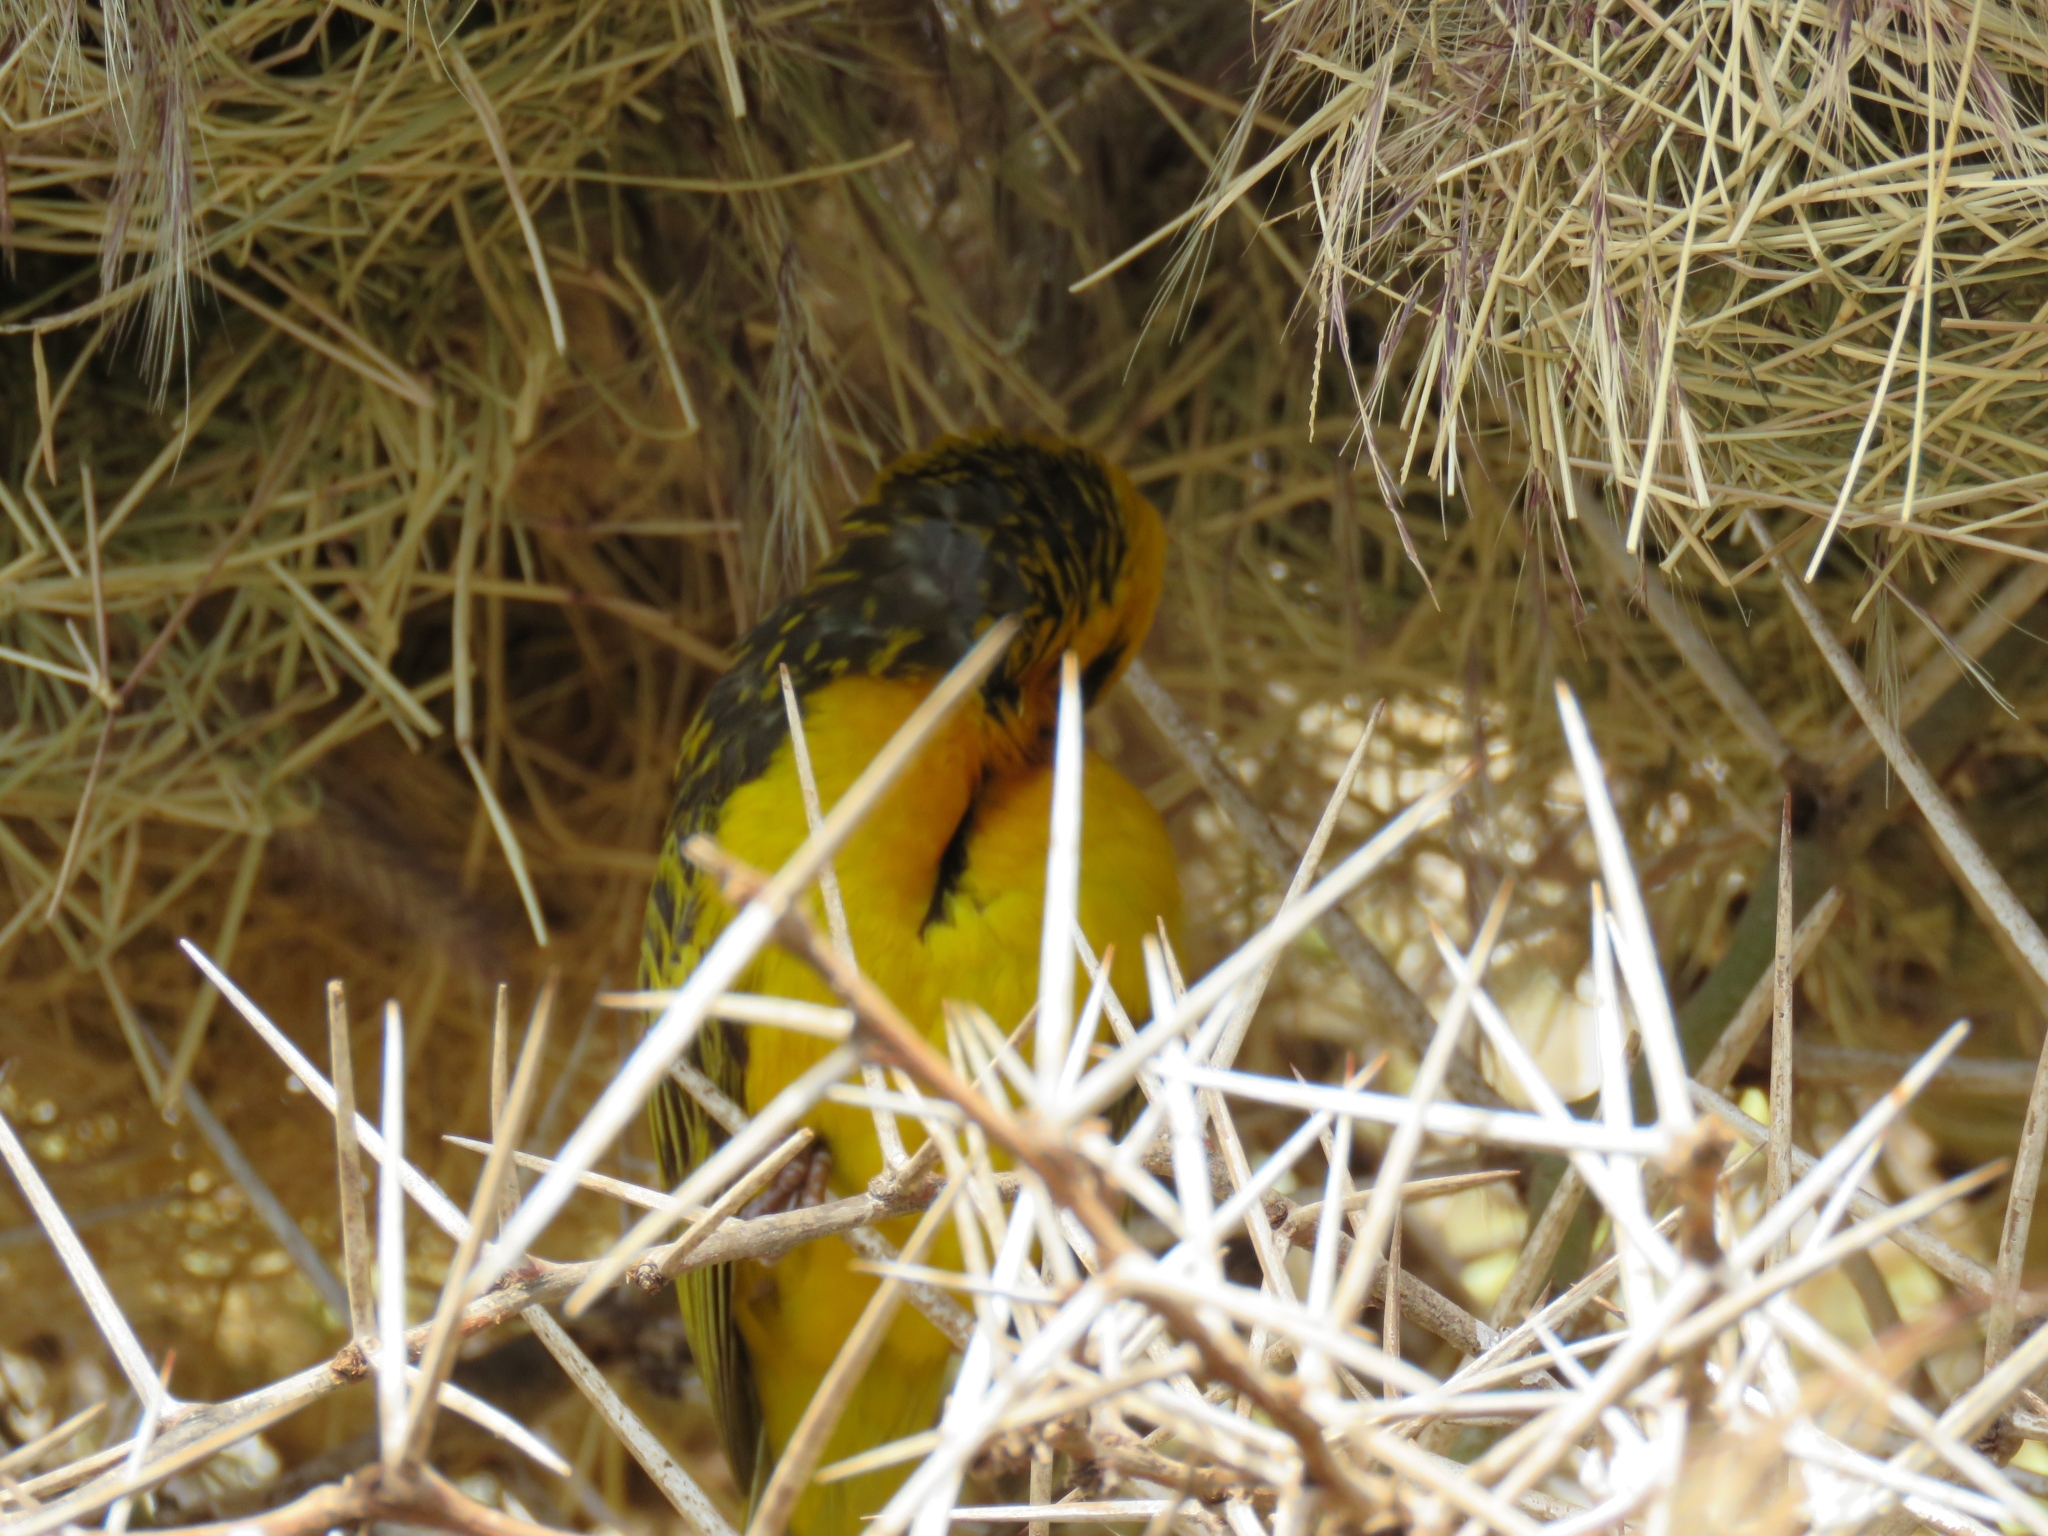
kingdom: Animalia
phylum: Chordata
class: Aves
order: Passeriformes
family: Ploceidae
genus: Ploceus
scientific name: Ploceus spekei
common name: Speke's weaver
